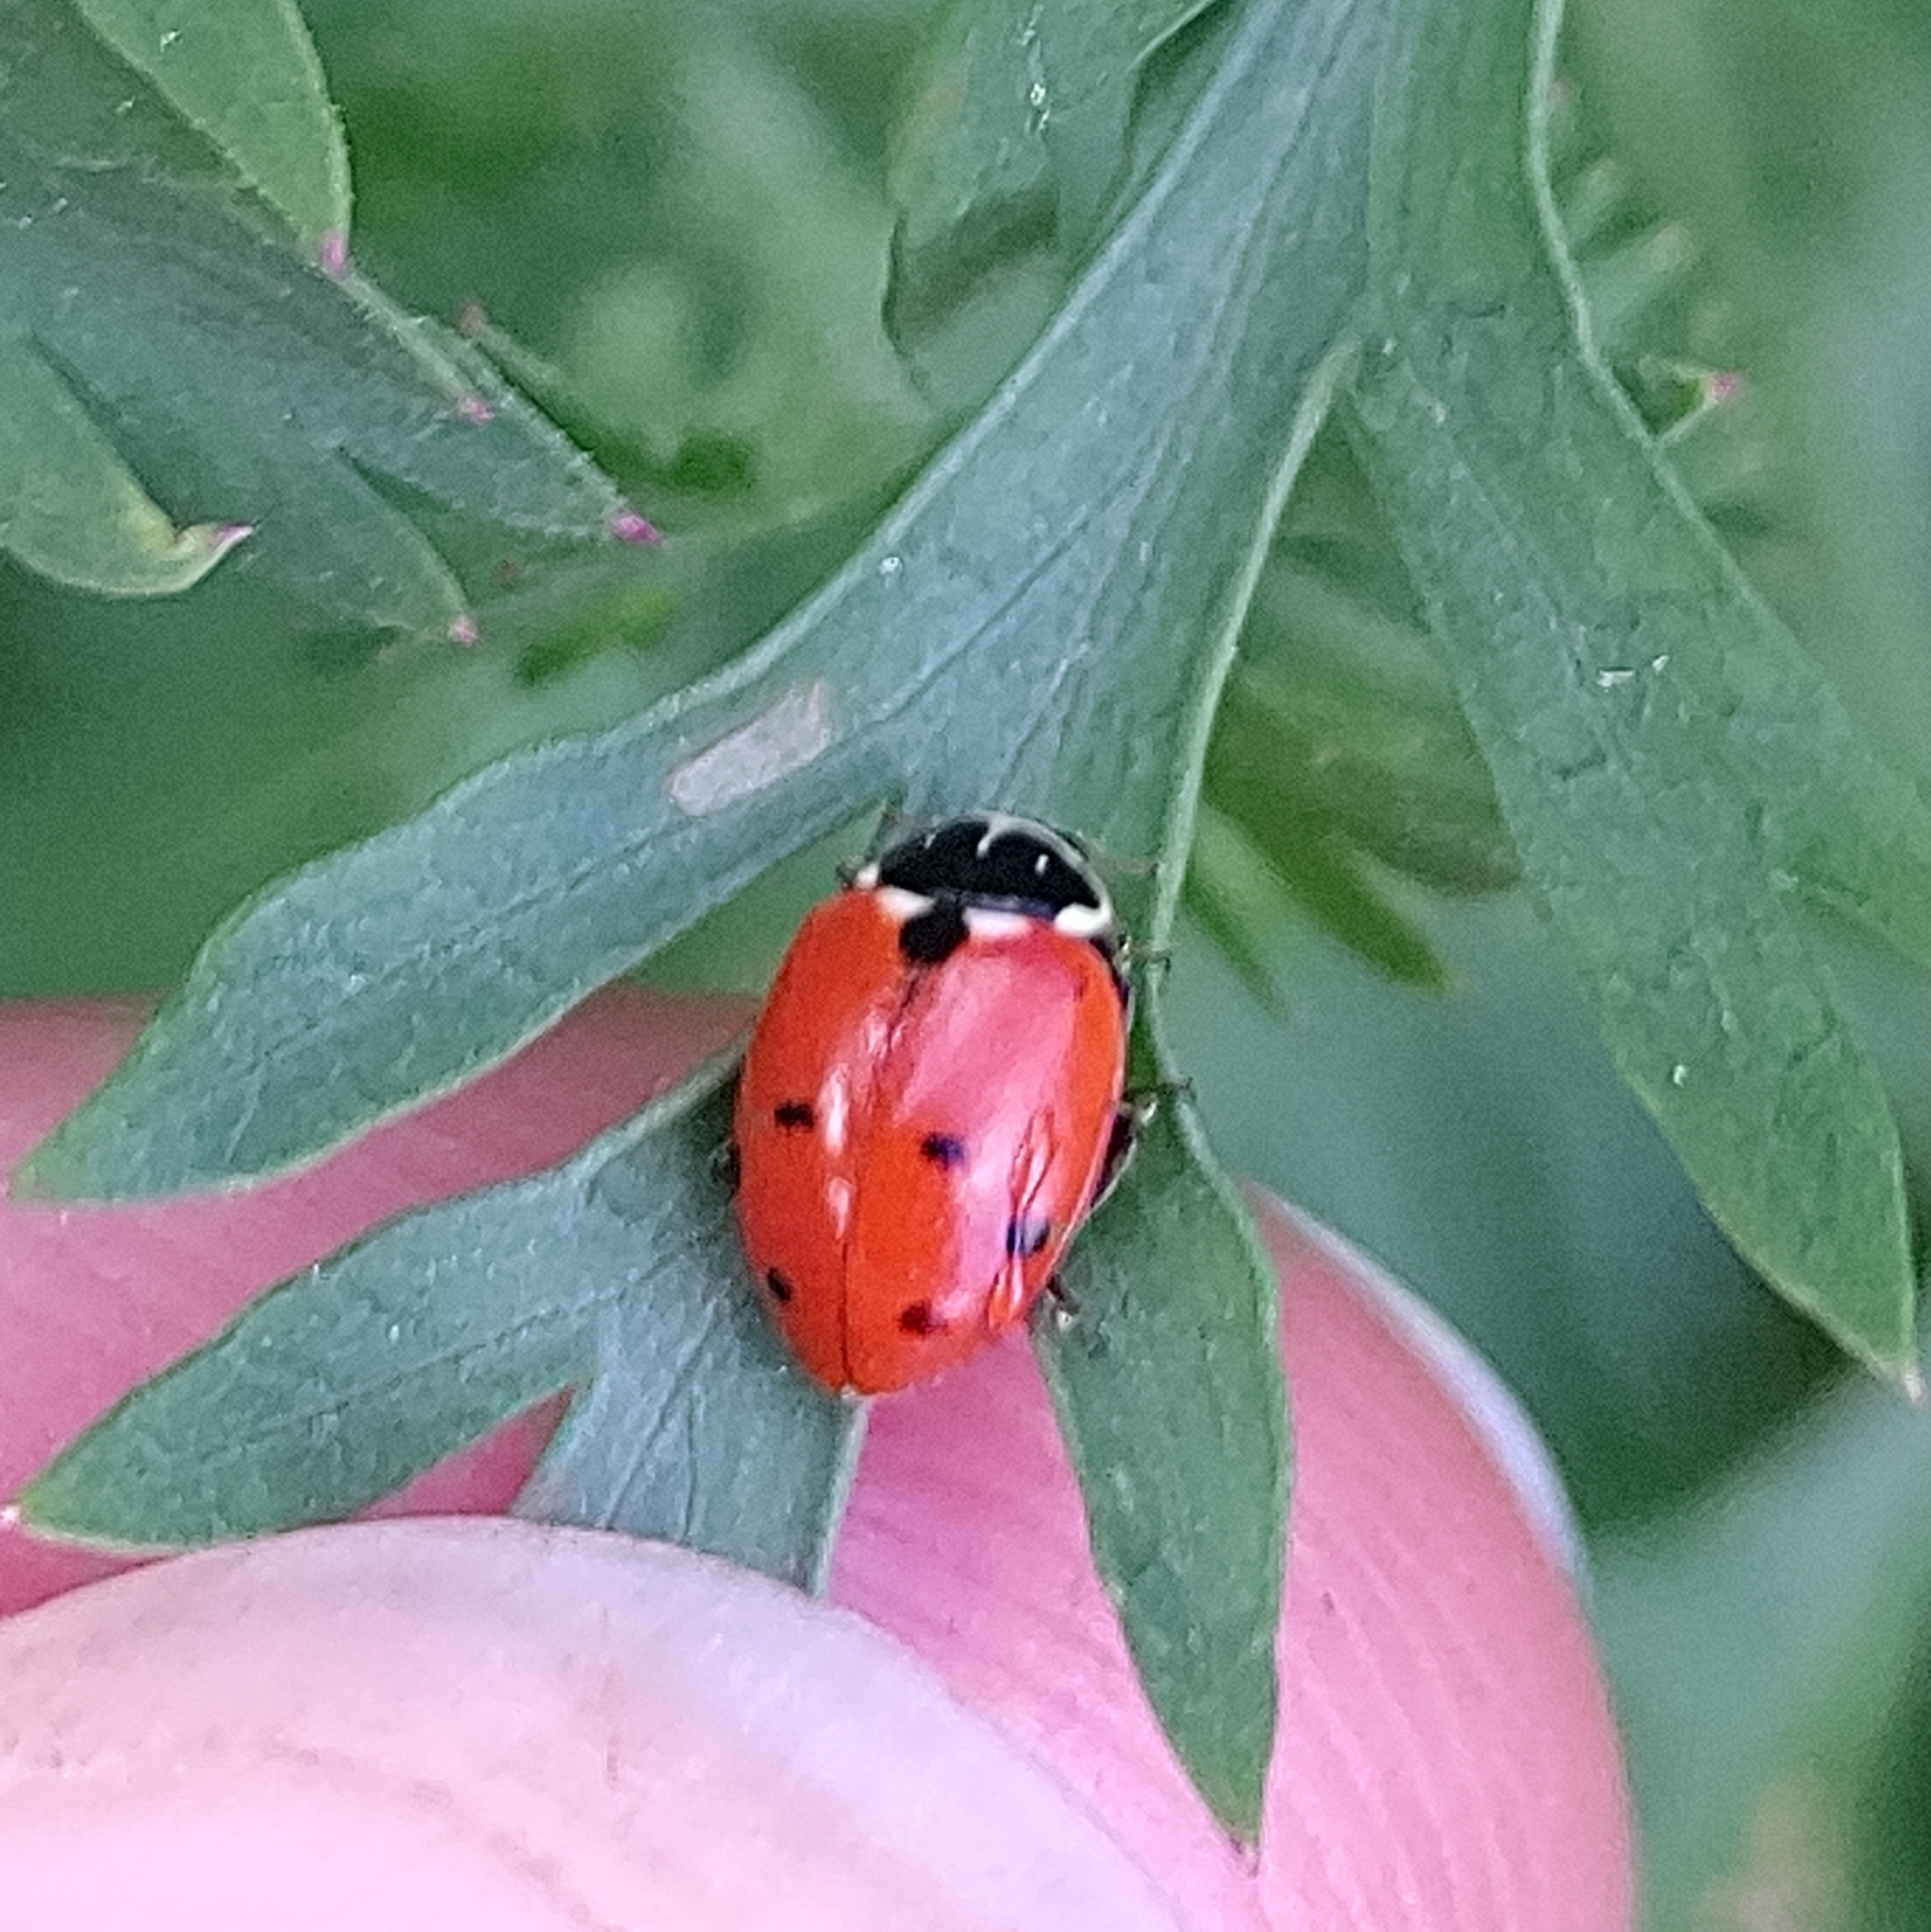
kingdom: Animalia
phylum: Arthropoda
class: Insecta
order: Coleoptera
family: Coccinellidae
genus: Hippodamia
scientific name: Hippodamia variegata
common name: Ladybird beetle
